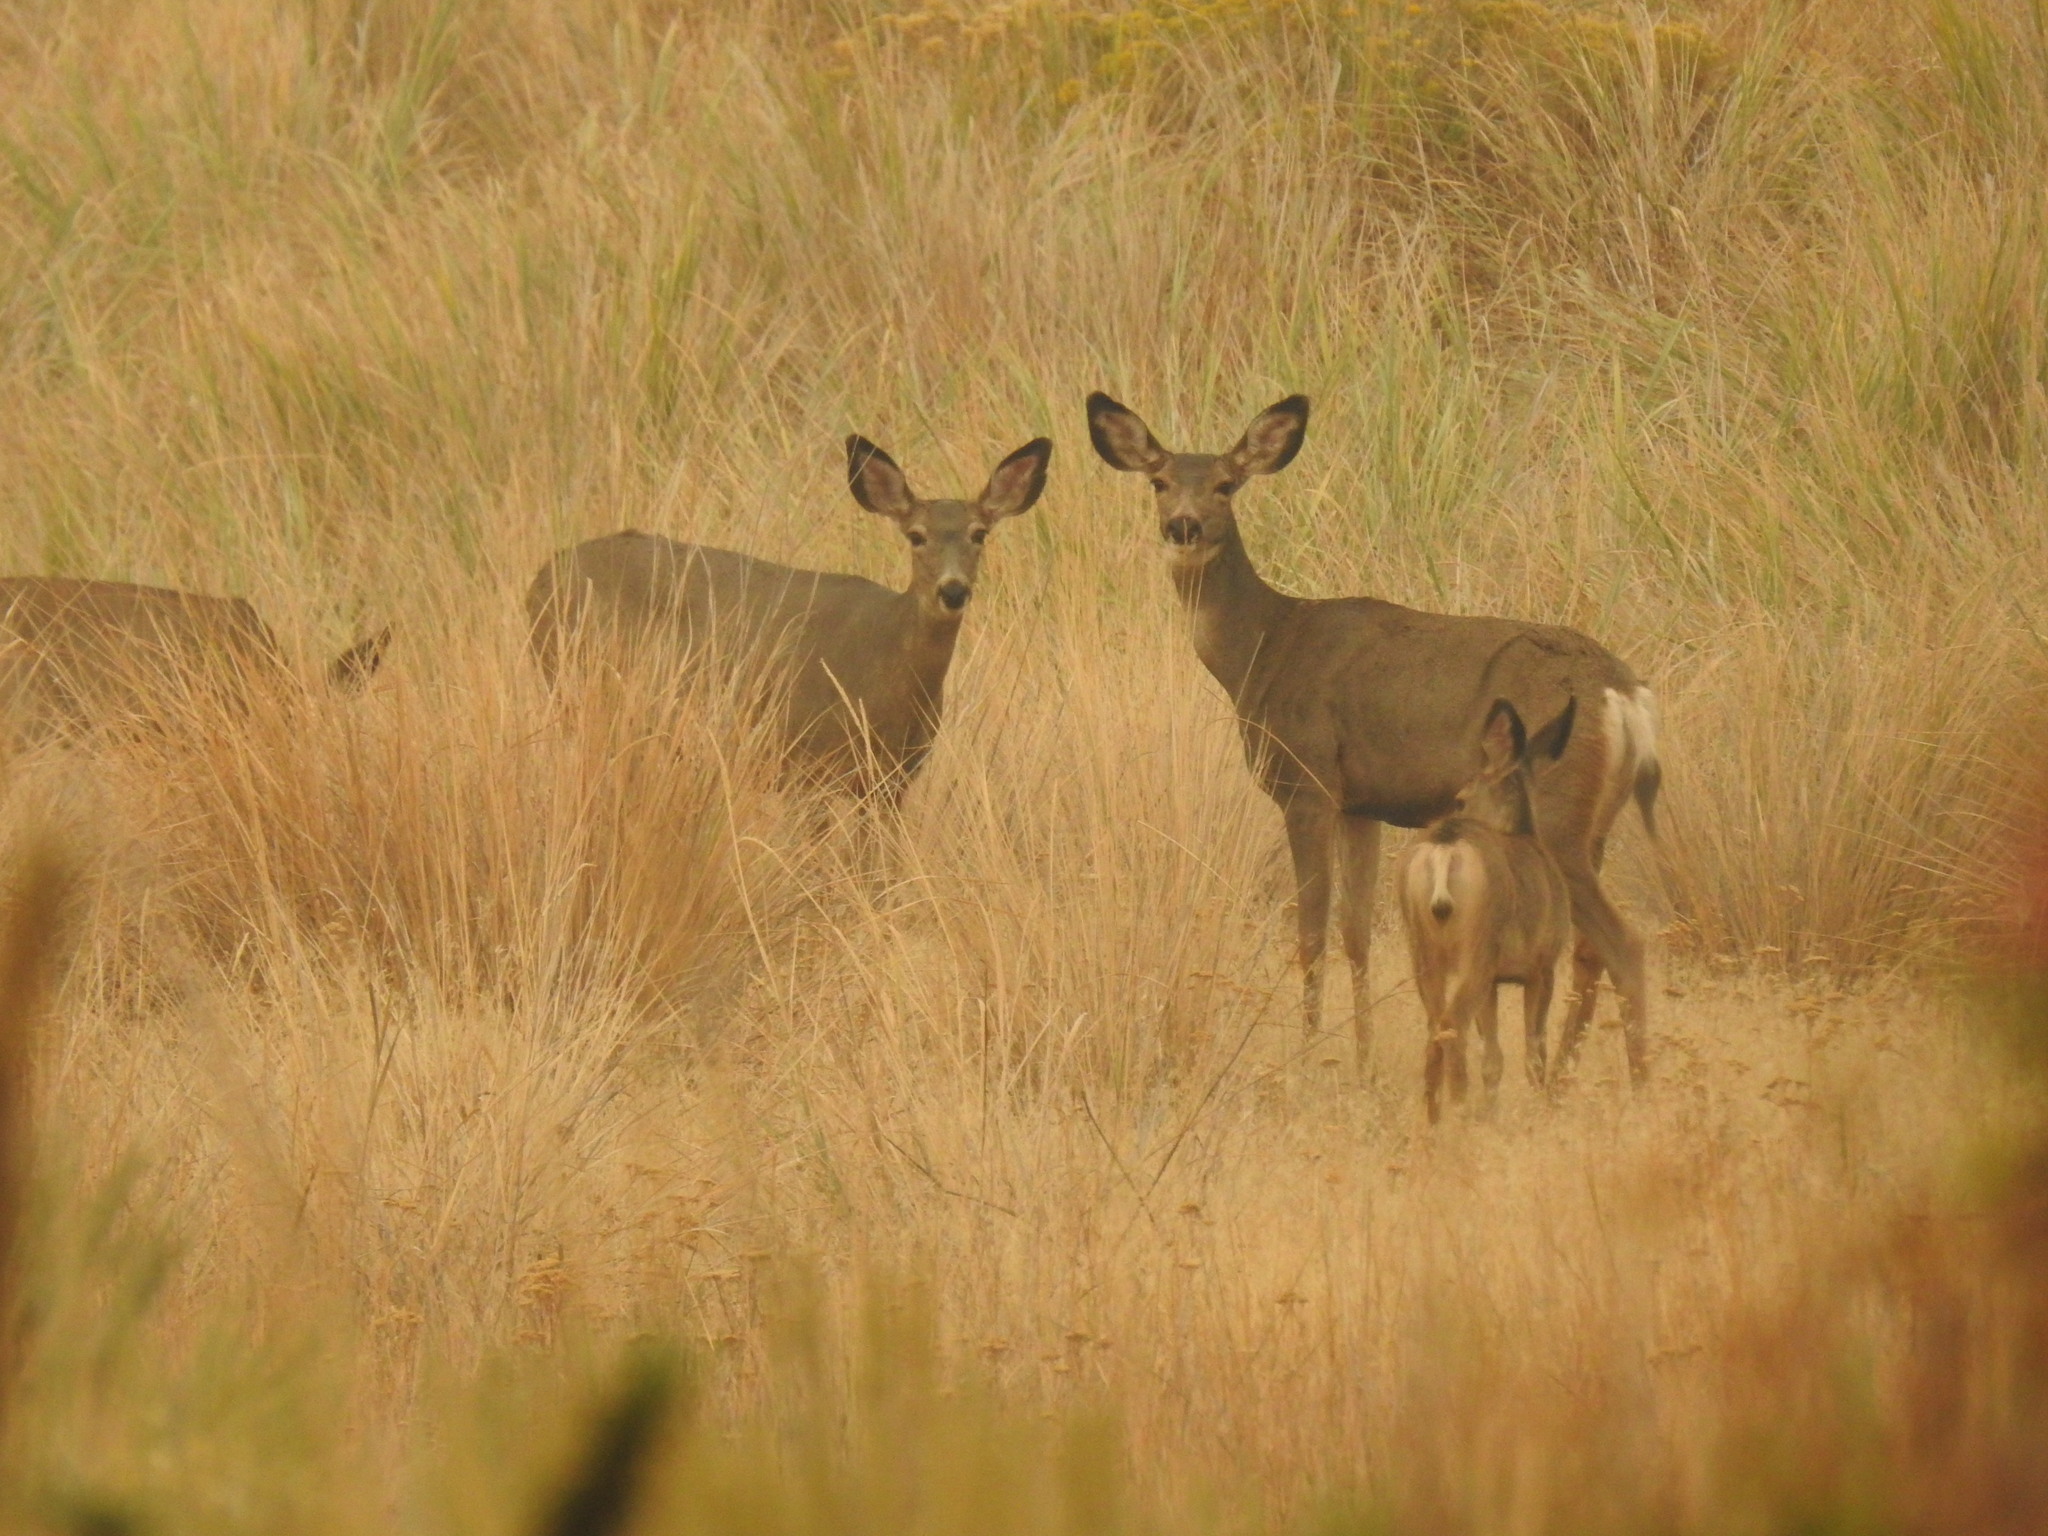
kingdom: Animalia
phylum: Chordata
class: Mammalia
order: Artiodactyla
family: Cervidae
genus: Odocoileus
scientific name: Odocoileus hemionus
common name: Mule deer
